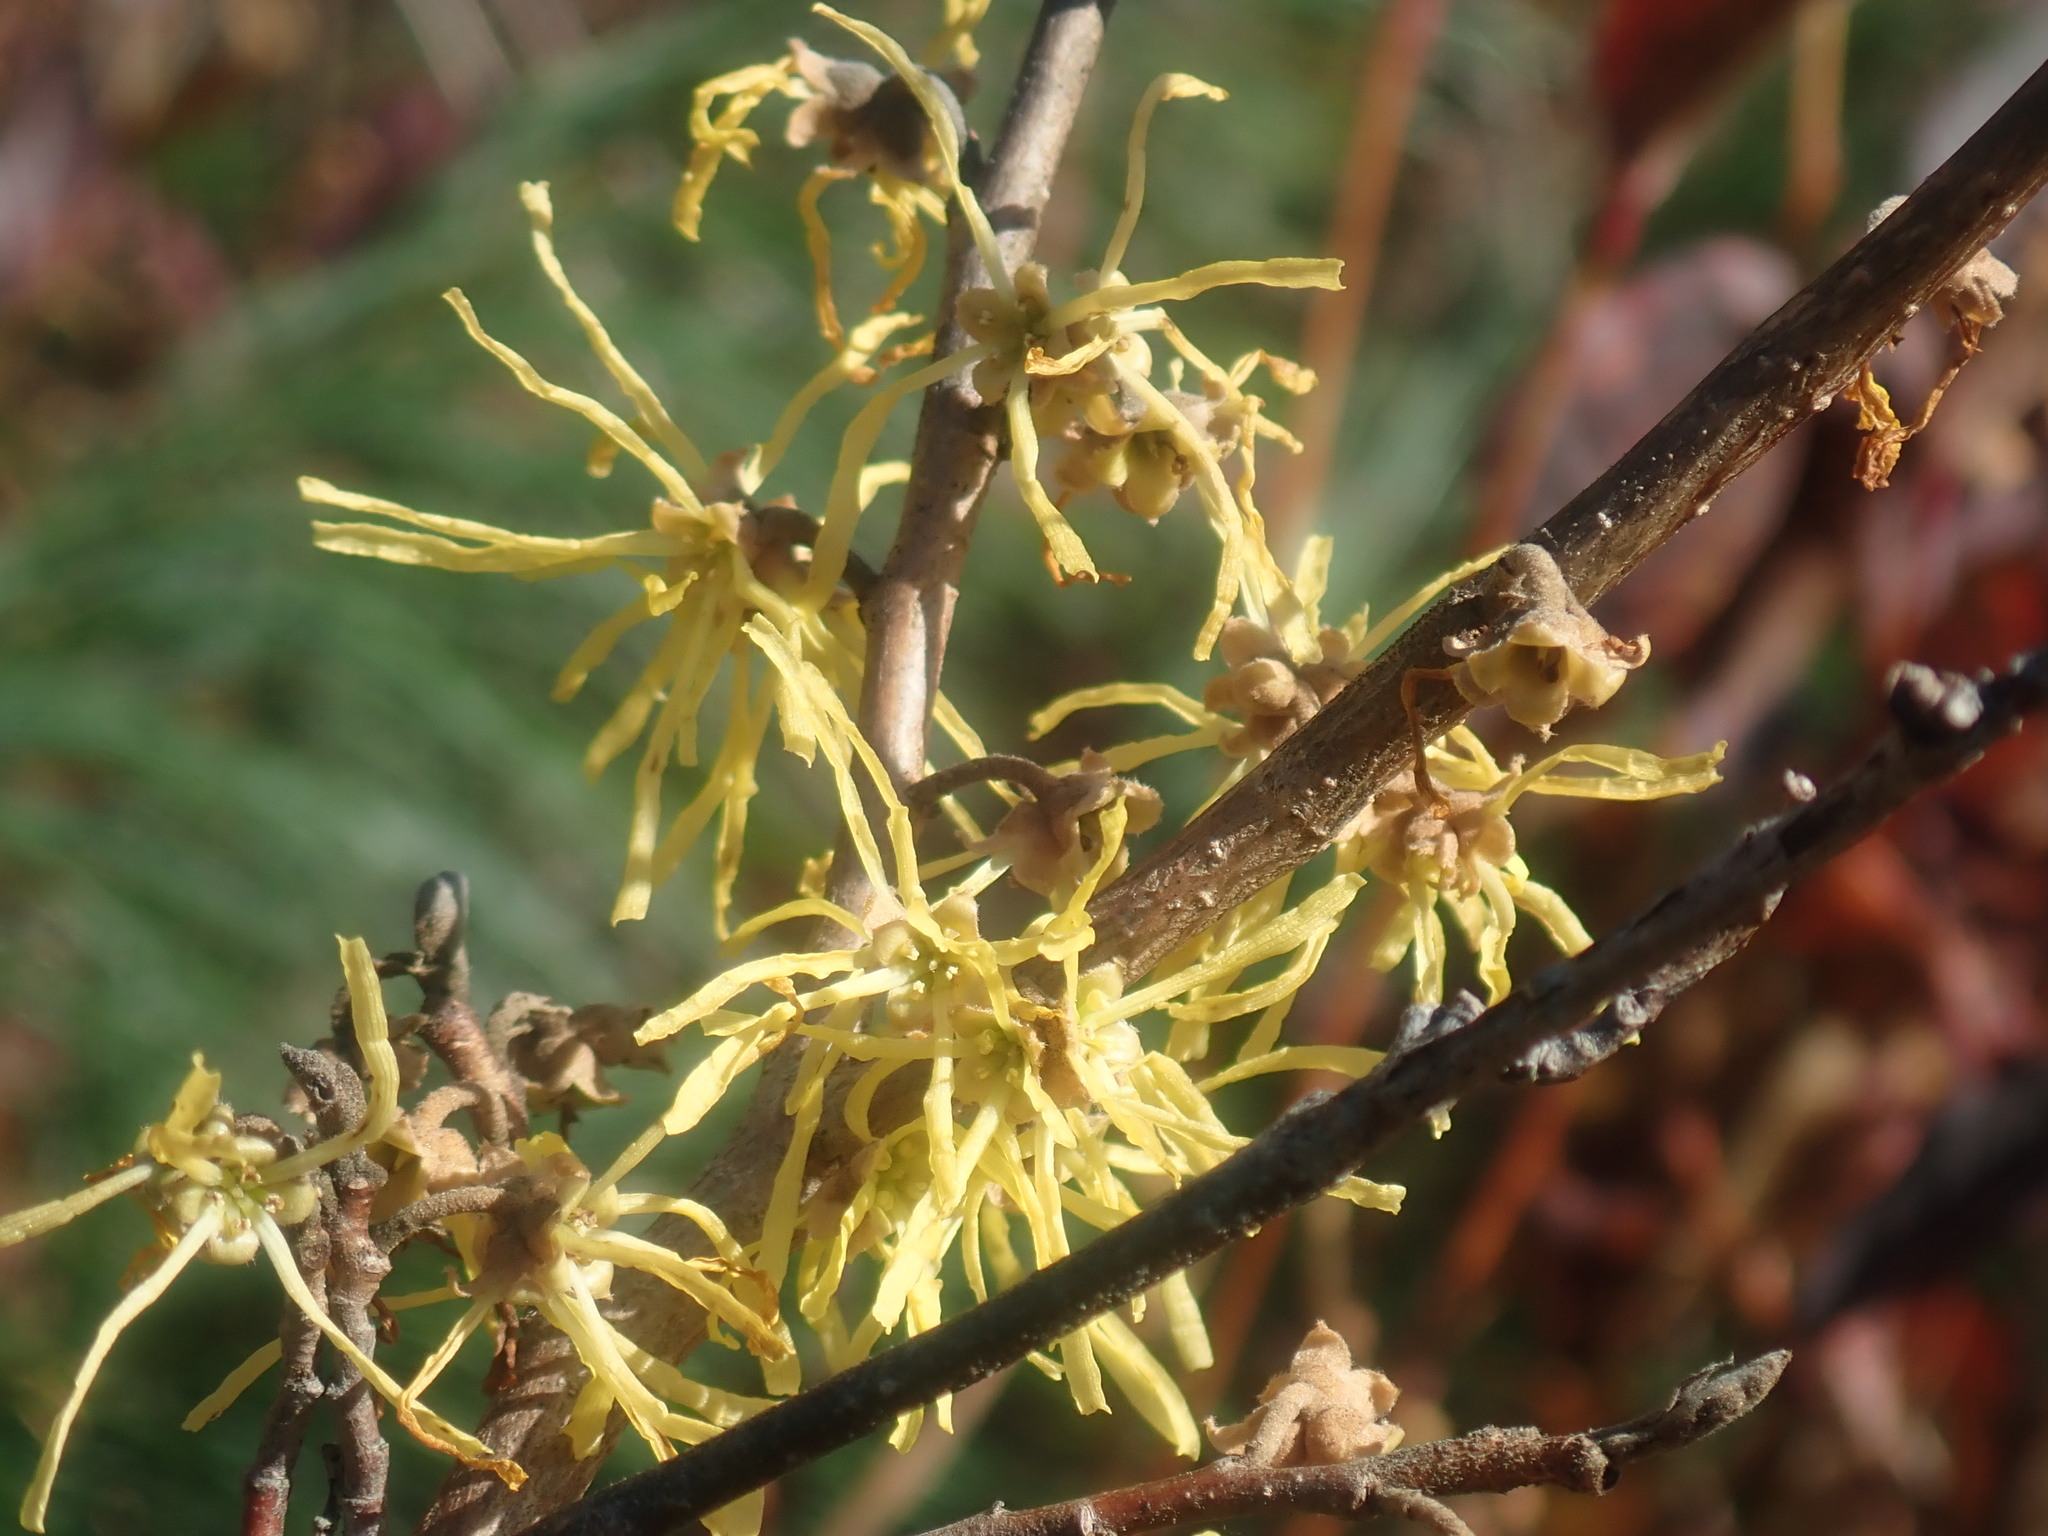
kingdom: Plantae
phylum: Tracheophyta
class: Magnoliopsida
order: Saxifragales
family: Hamamelidaceae
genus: Hamamelis
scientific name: Hamamelis virginiana
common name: Witch-hazel
